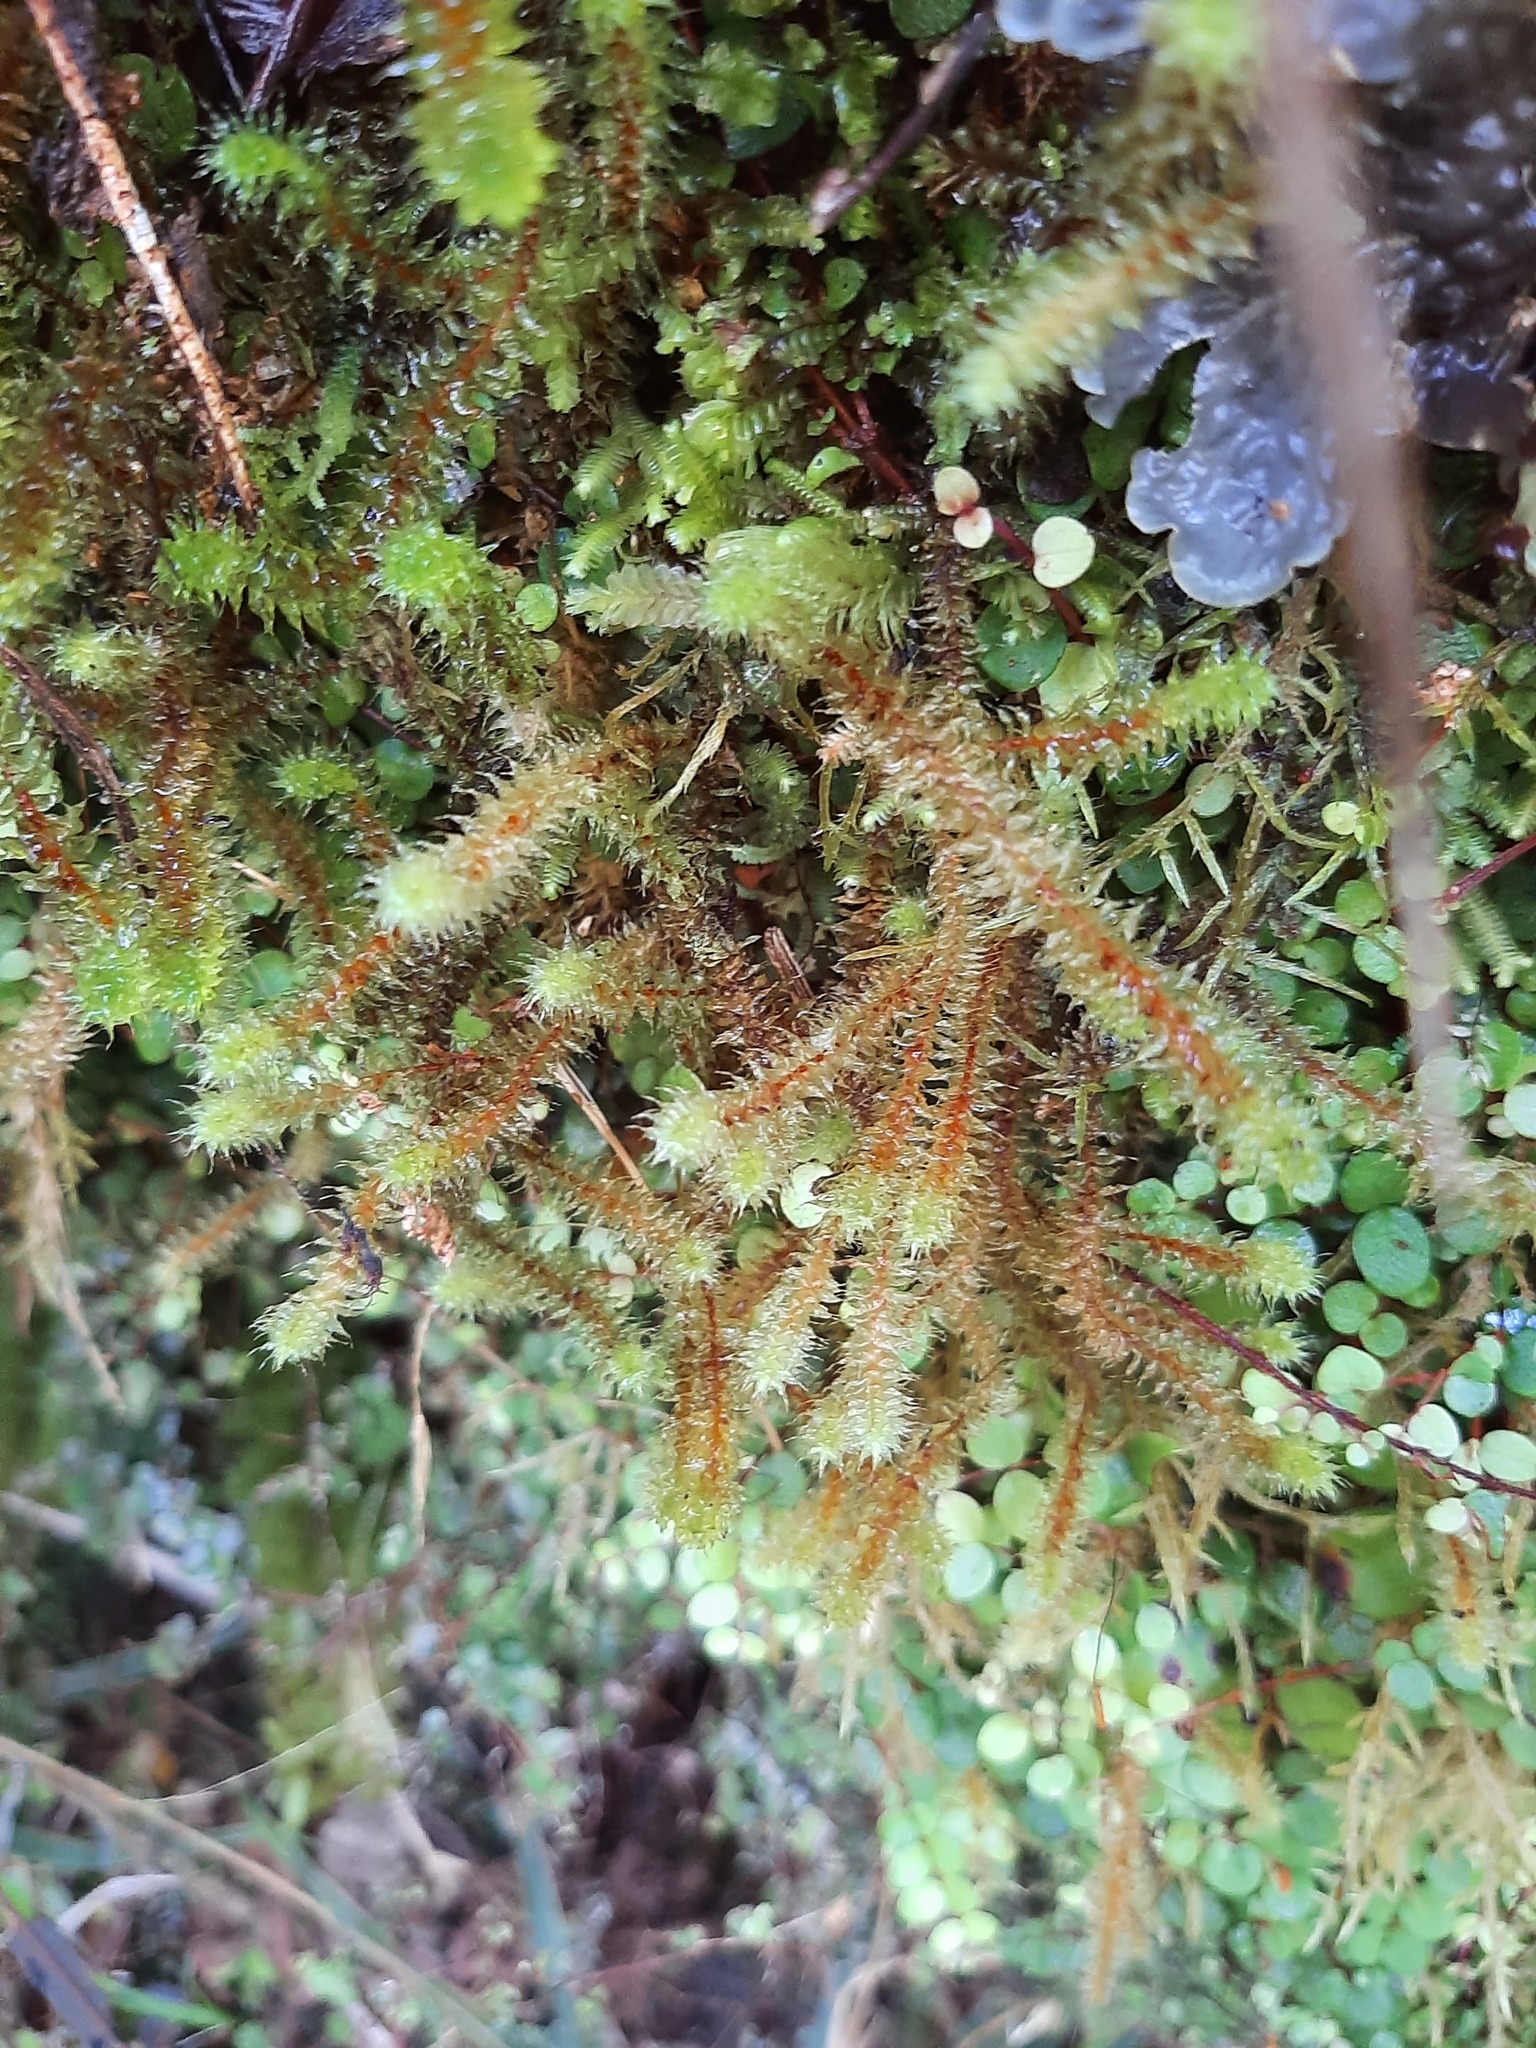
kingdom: Plantae
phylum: Bryophyta
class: Bryopsida
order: Ptychomniales
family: Ptychomniaceae
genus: Ptychomnion
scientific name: Ptychomnion aciculare
